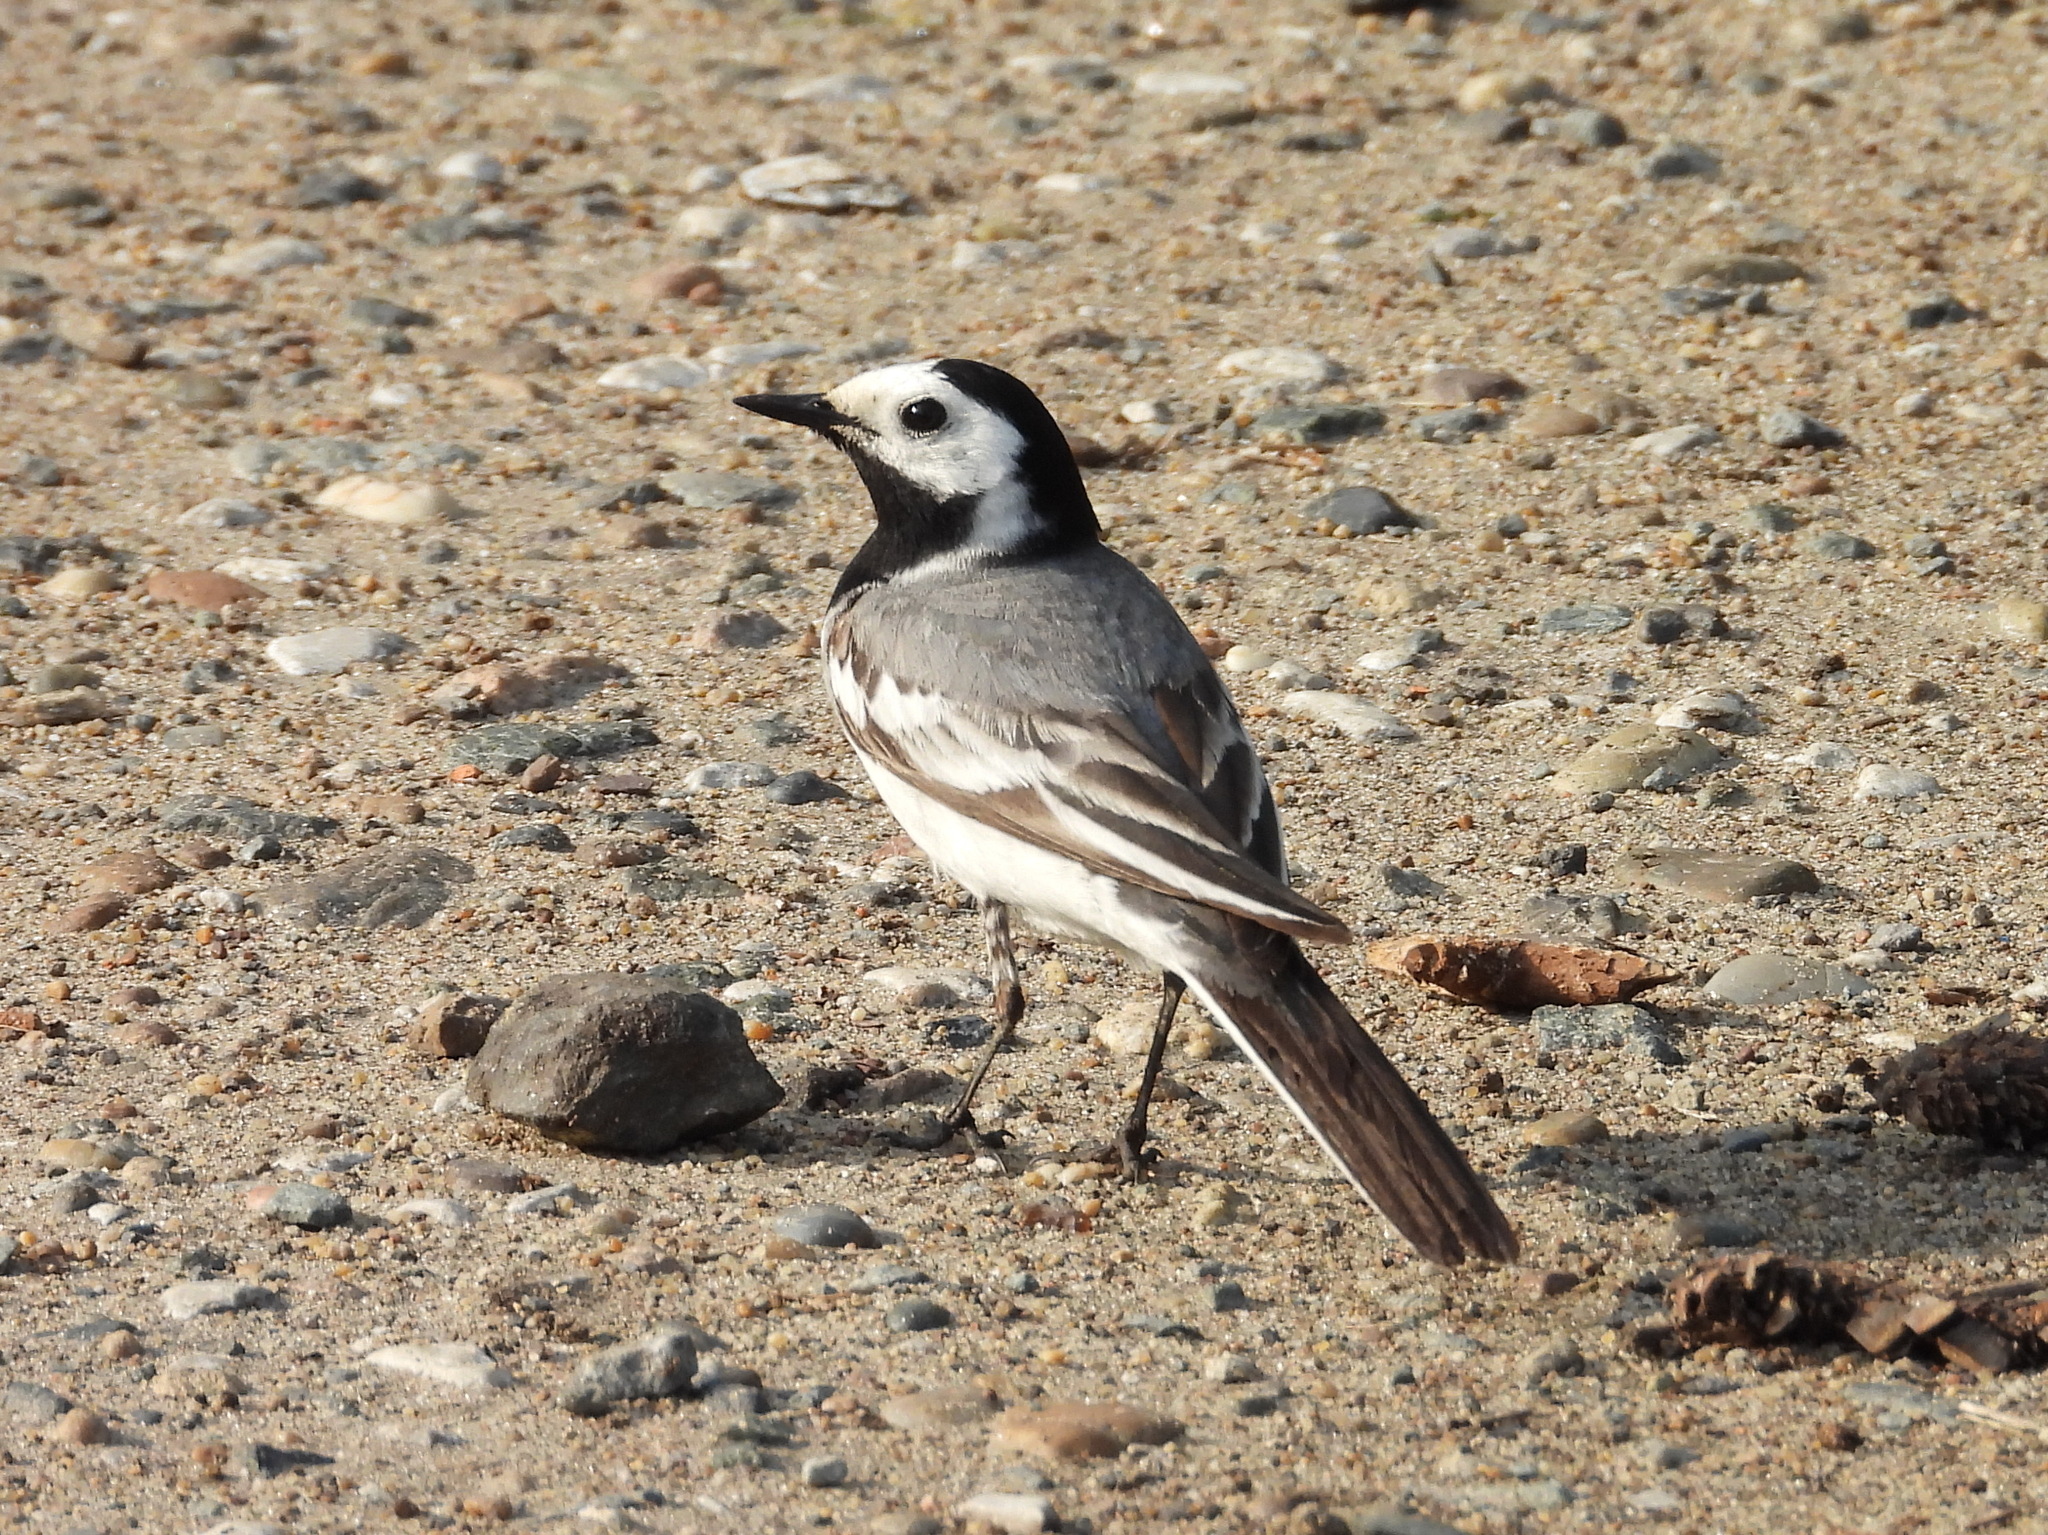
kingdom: Animalia
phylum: Chordata
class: Aves
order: Passeriformes
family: Motacillidae
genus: Motacilla
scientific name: Motacilla alba
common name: White wagtail
